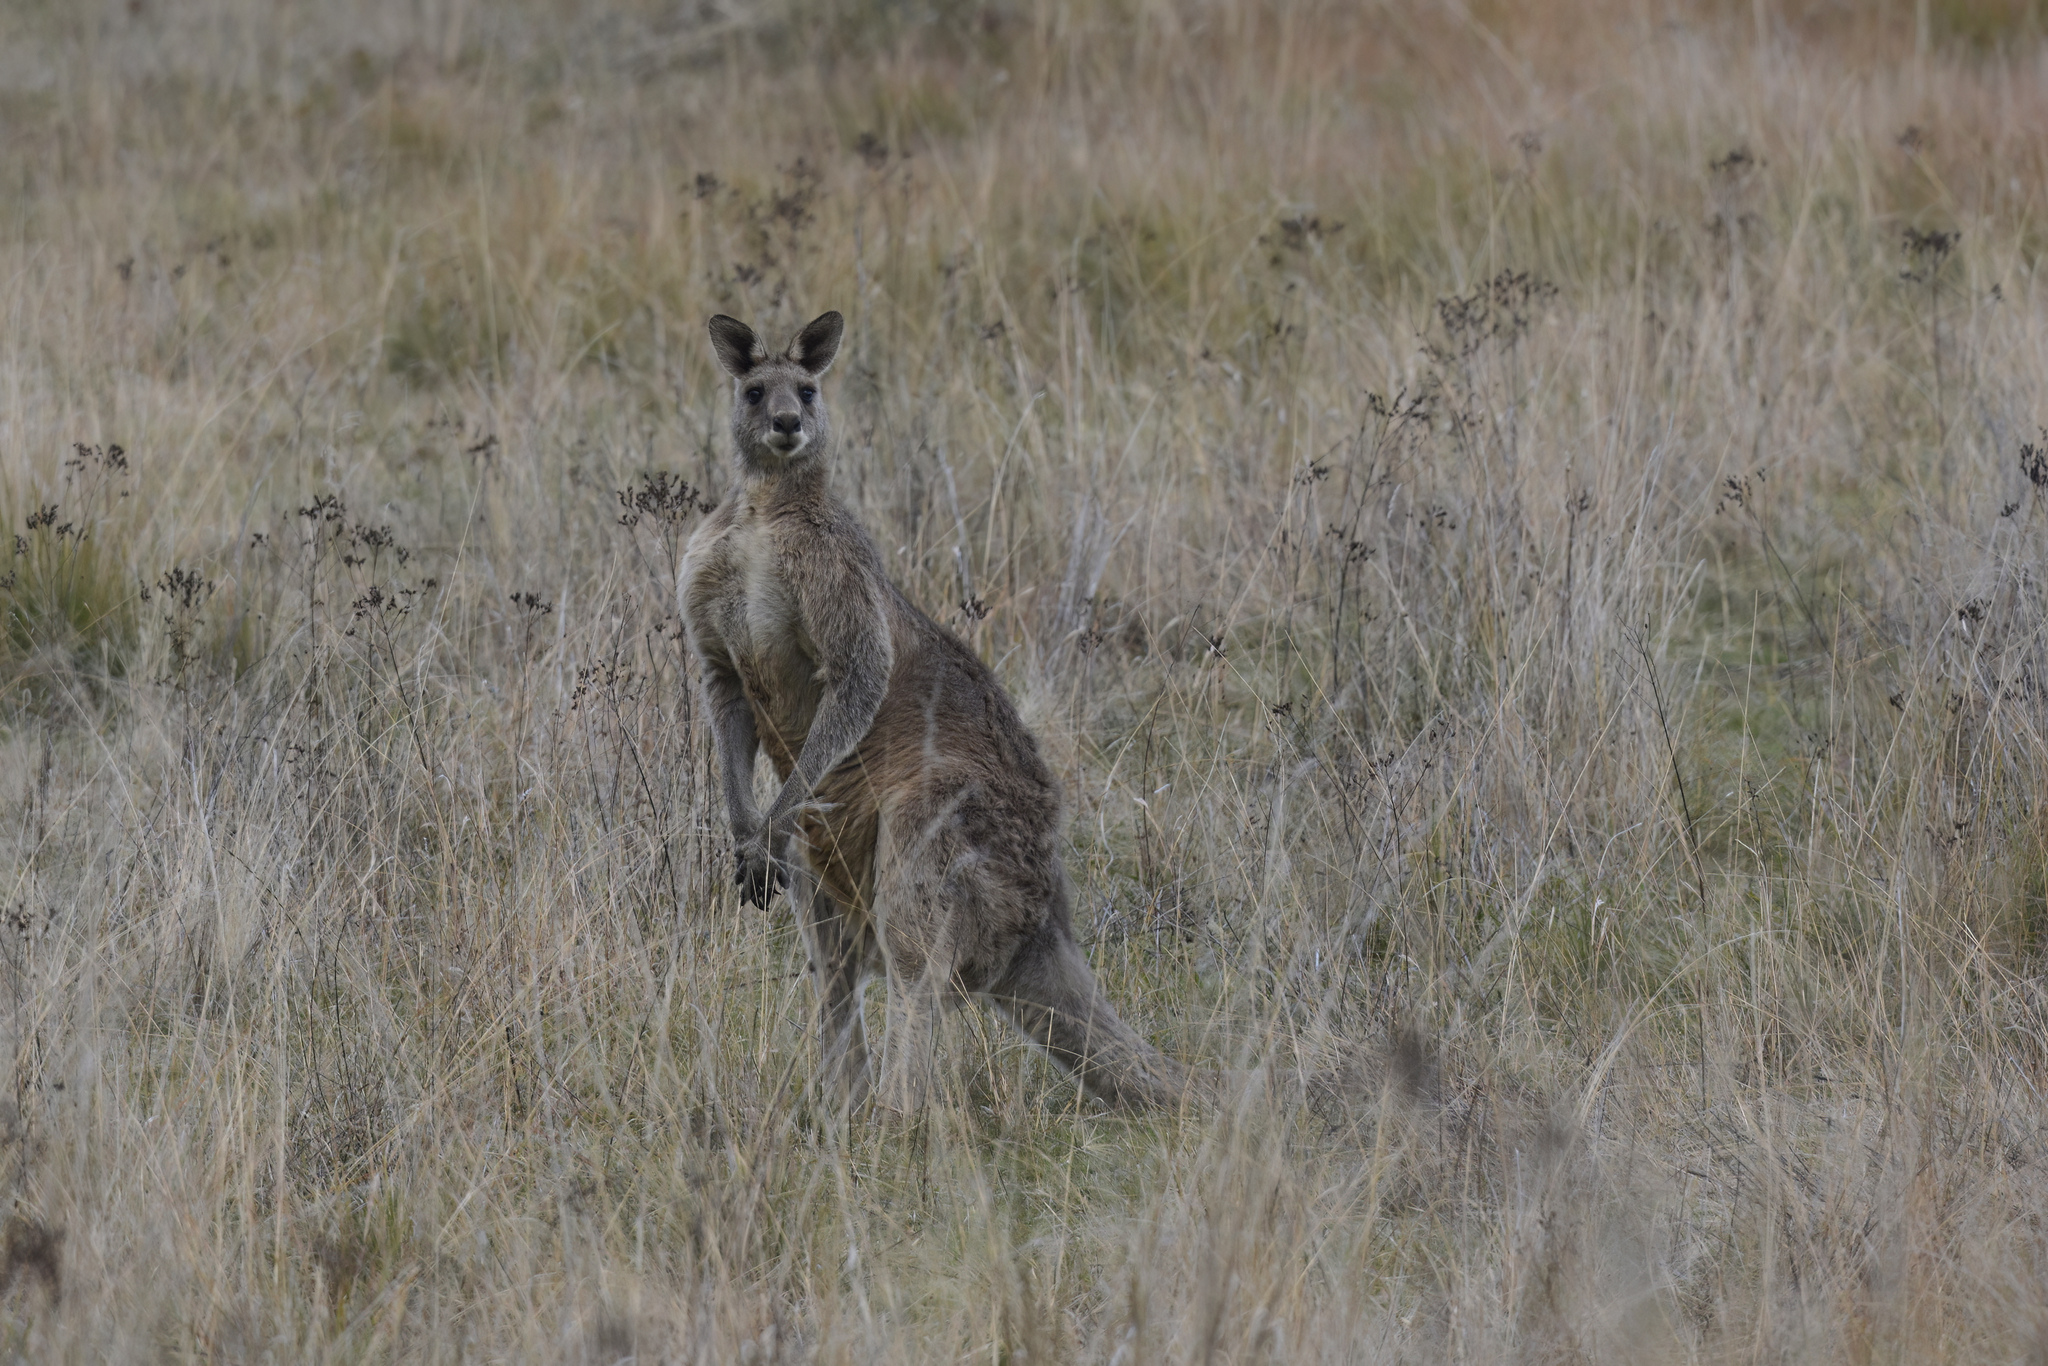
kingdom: Animalia
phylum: Chordata
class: Mammalia
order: Diprotodontia
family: Macropodidae
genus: Macropus
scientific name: Macropus giganteus
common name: Eastern grey kangaroo
